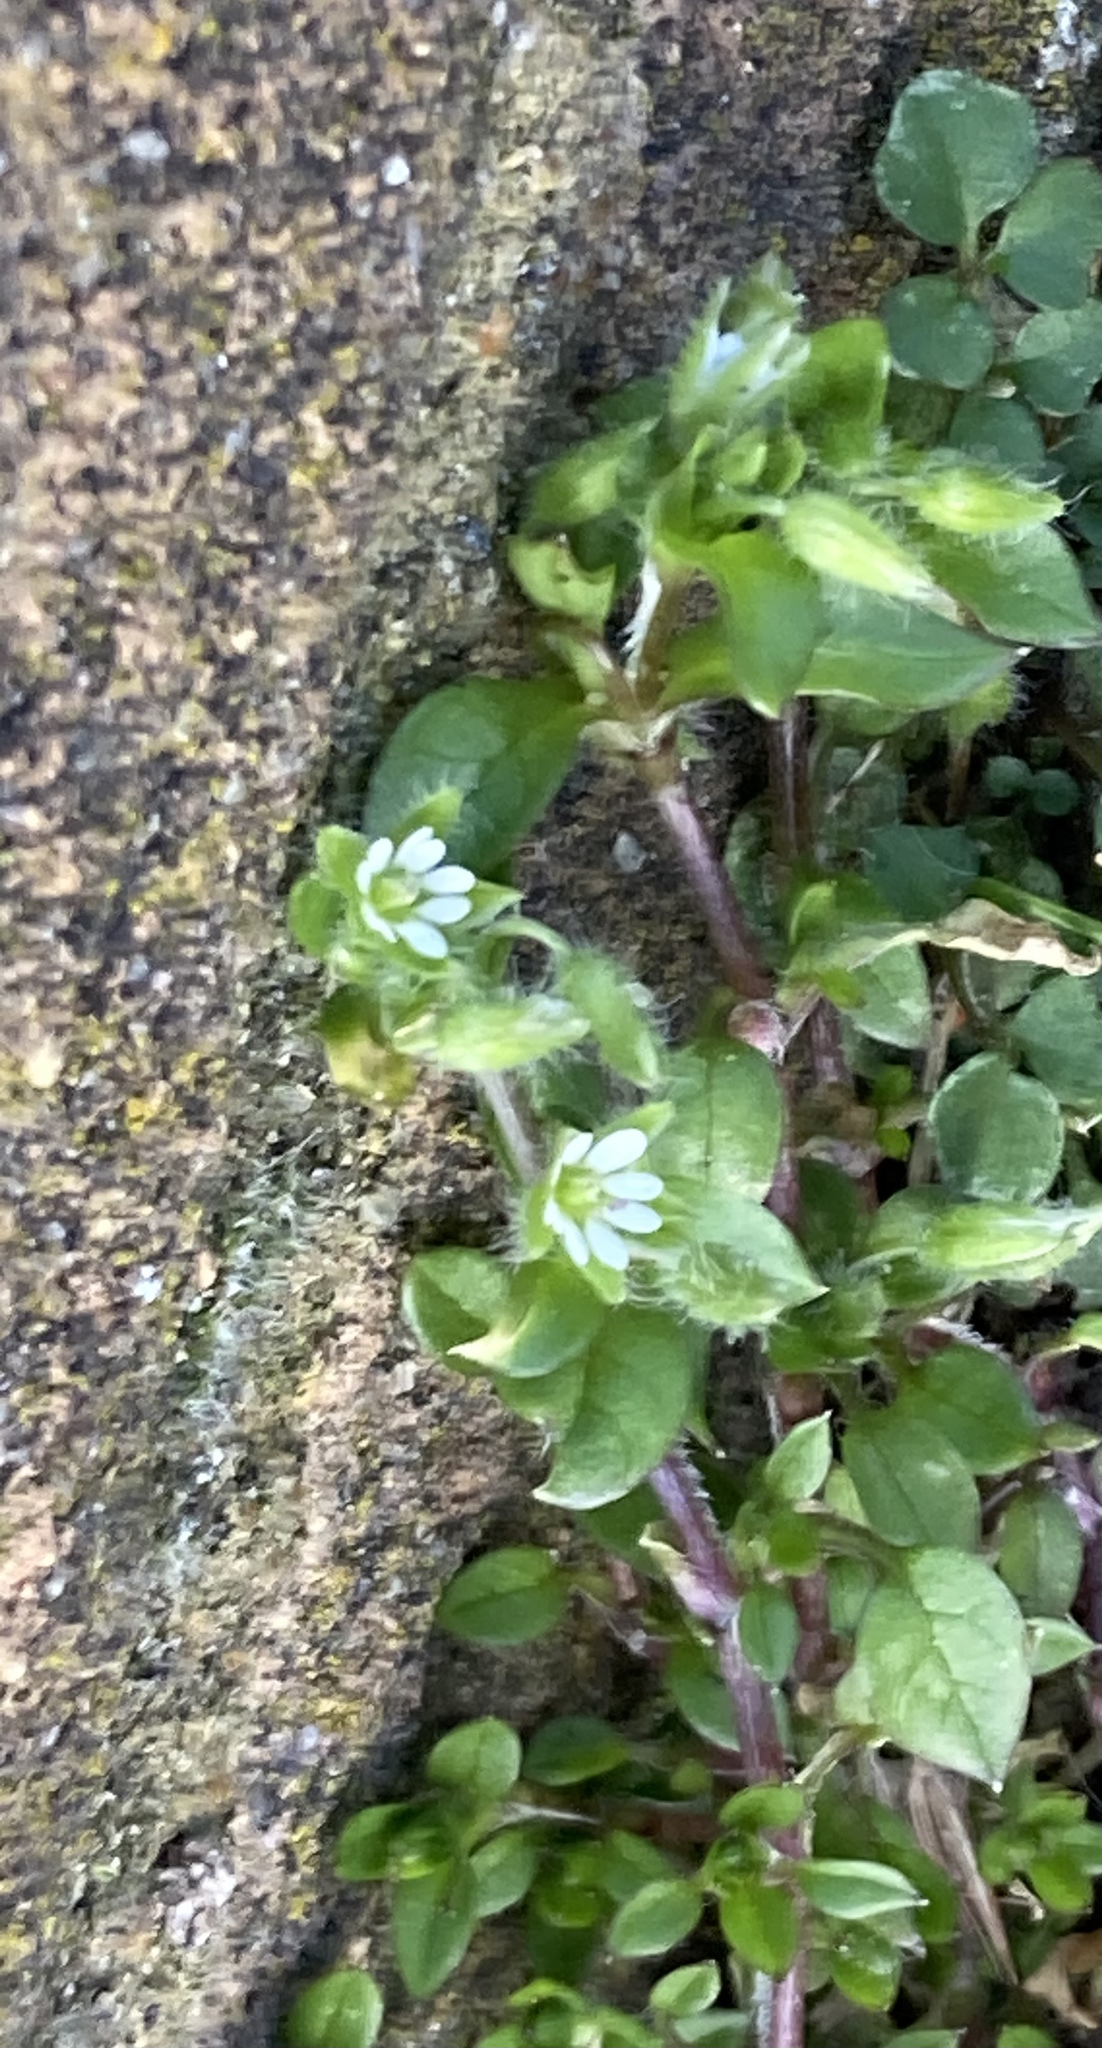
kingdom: Plantae
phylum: Tracheophyta
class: Magnoliopsida
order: Caryophyllales
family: Caryophyllaceae
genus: Stellaria
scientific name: Stellaria media
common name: Common chickweed
